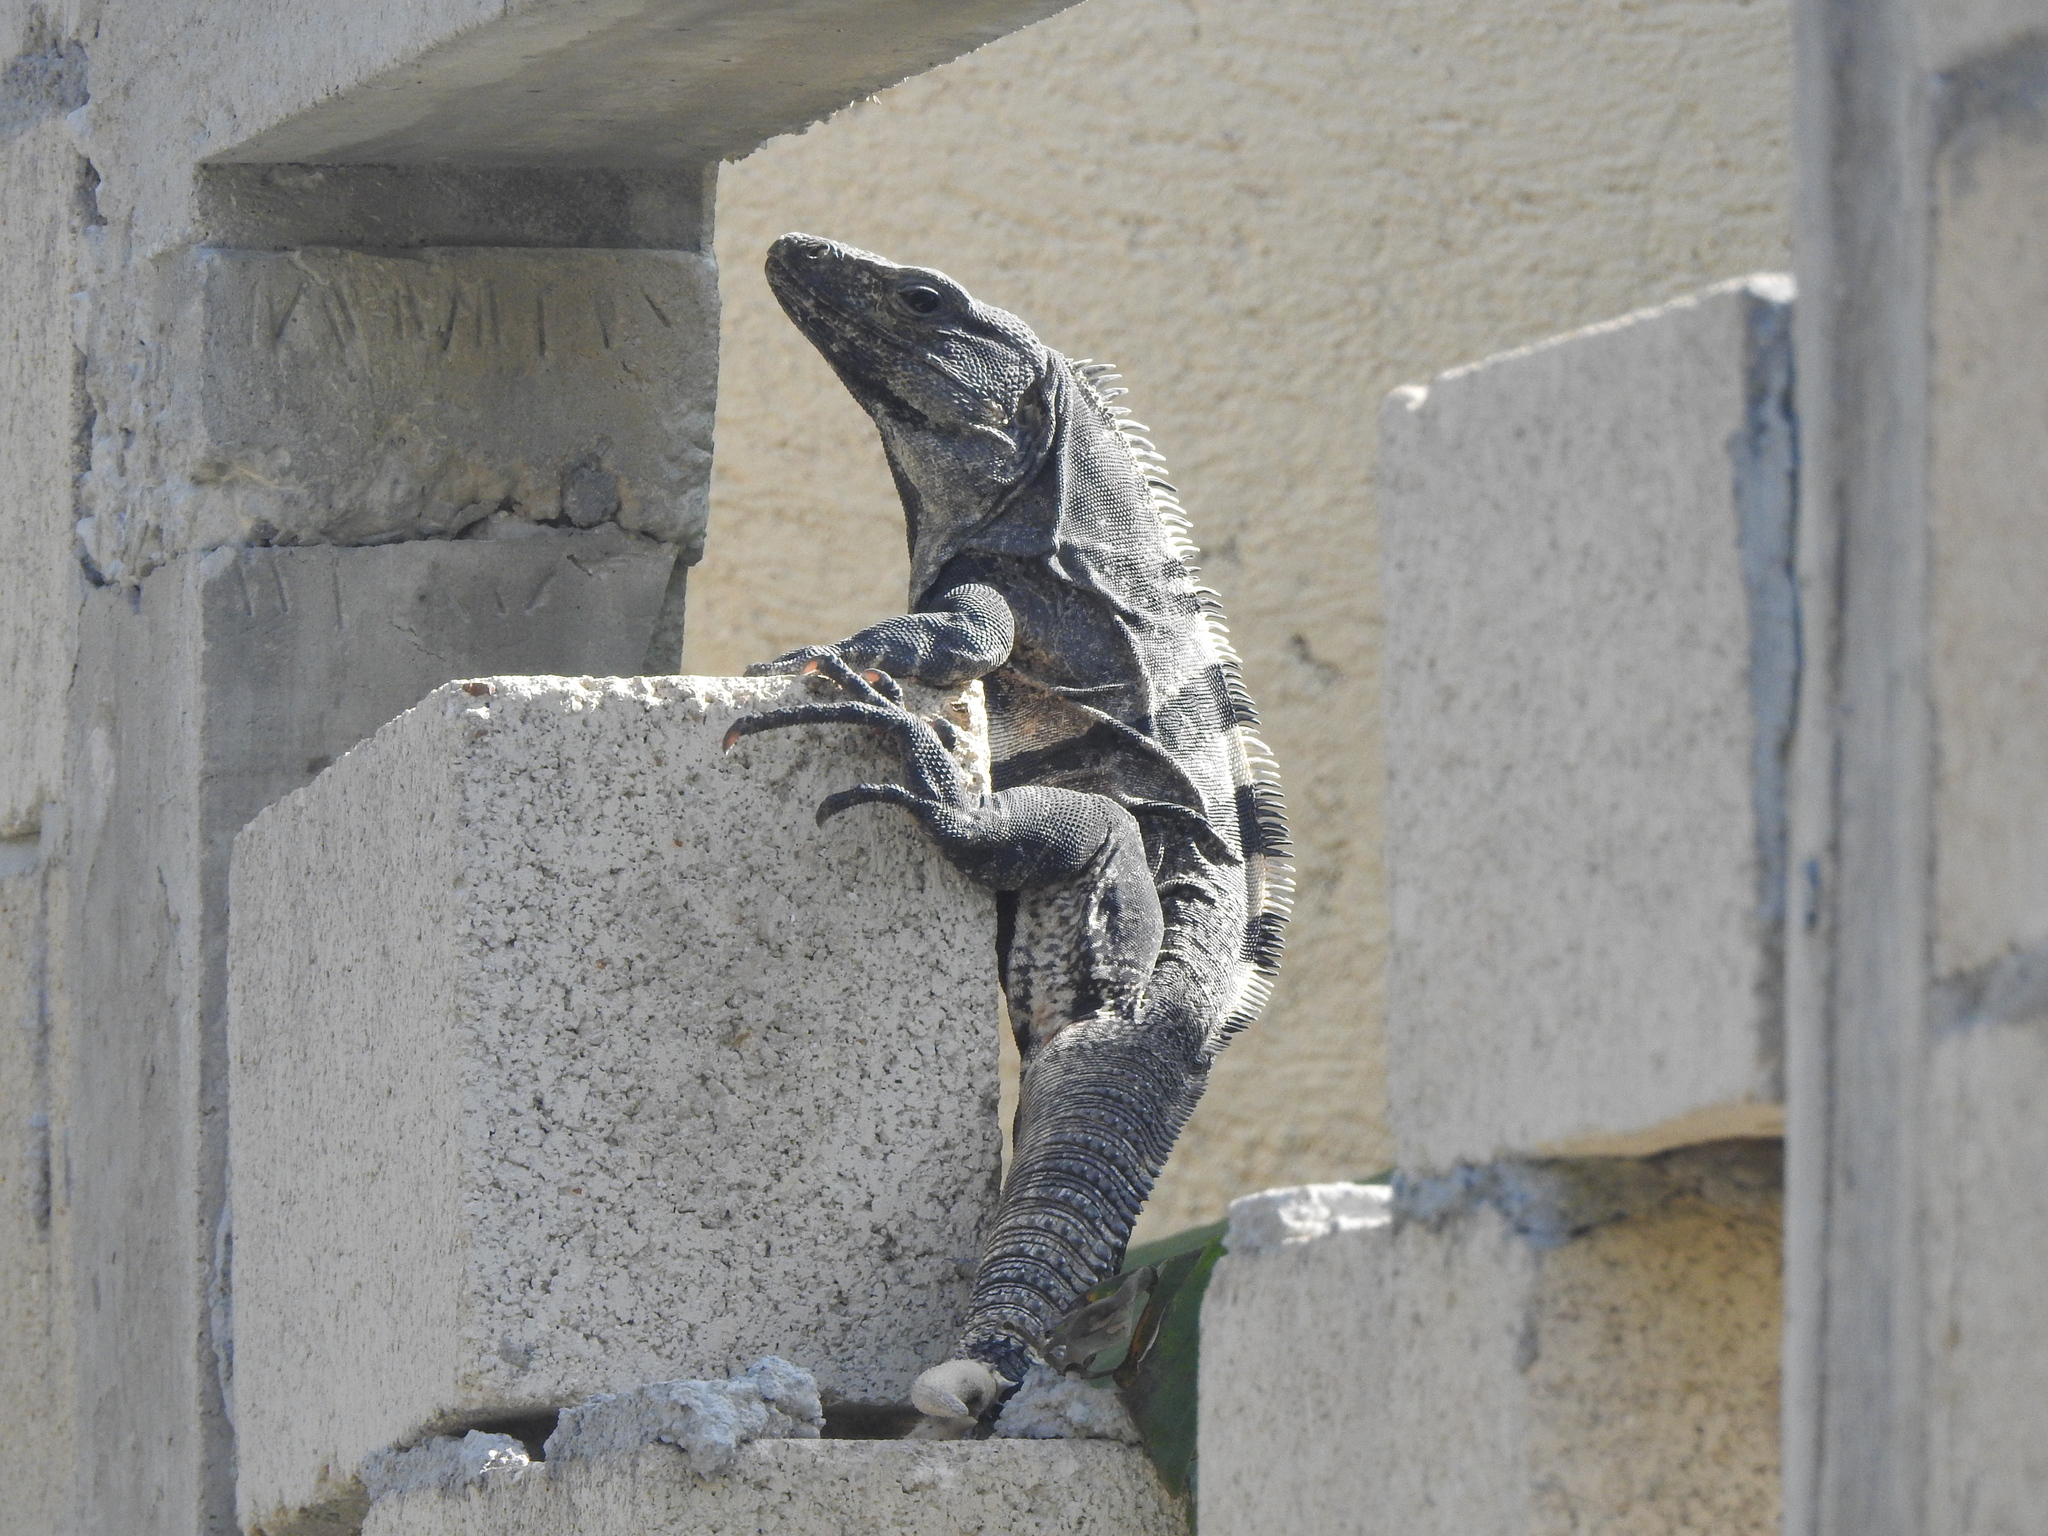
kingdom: Animalia
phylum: Chordata
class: Squamata
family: Iguanidae
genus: Ctenosaura
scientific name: Ctenosaura similis
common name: Black spiny-tailed iguana
